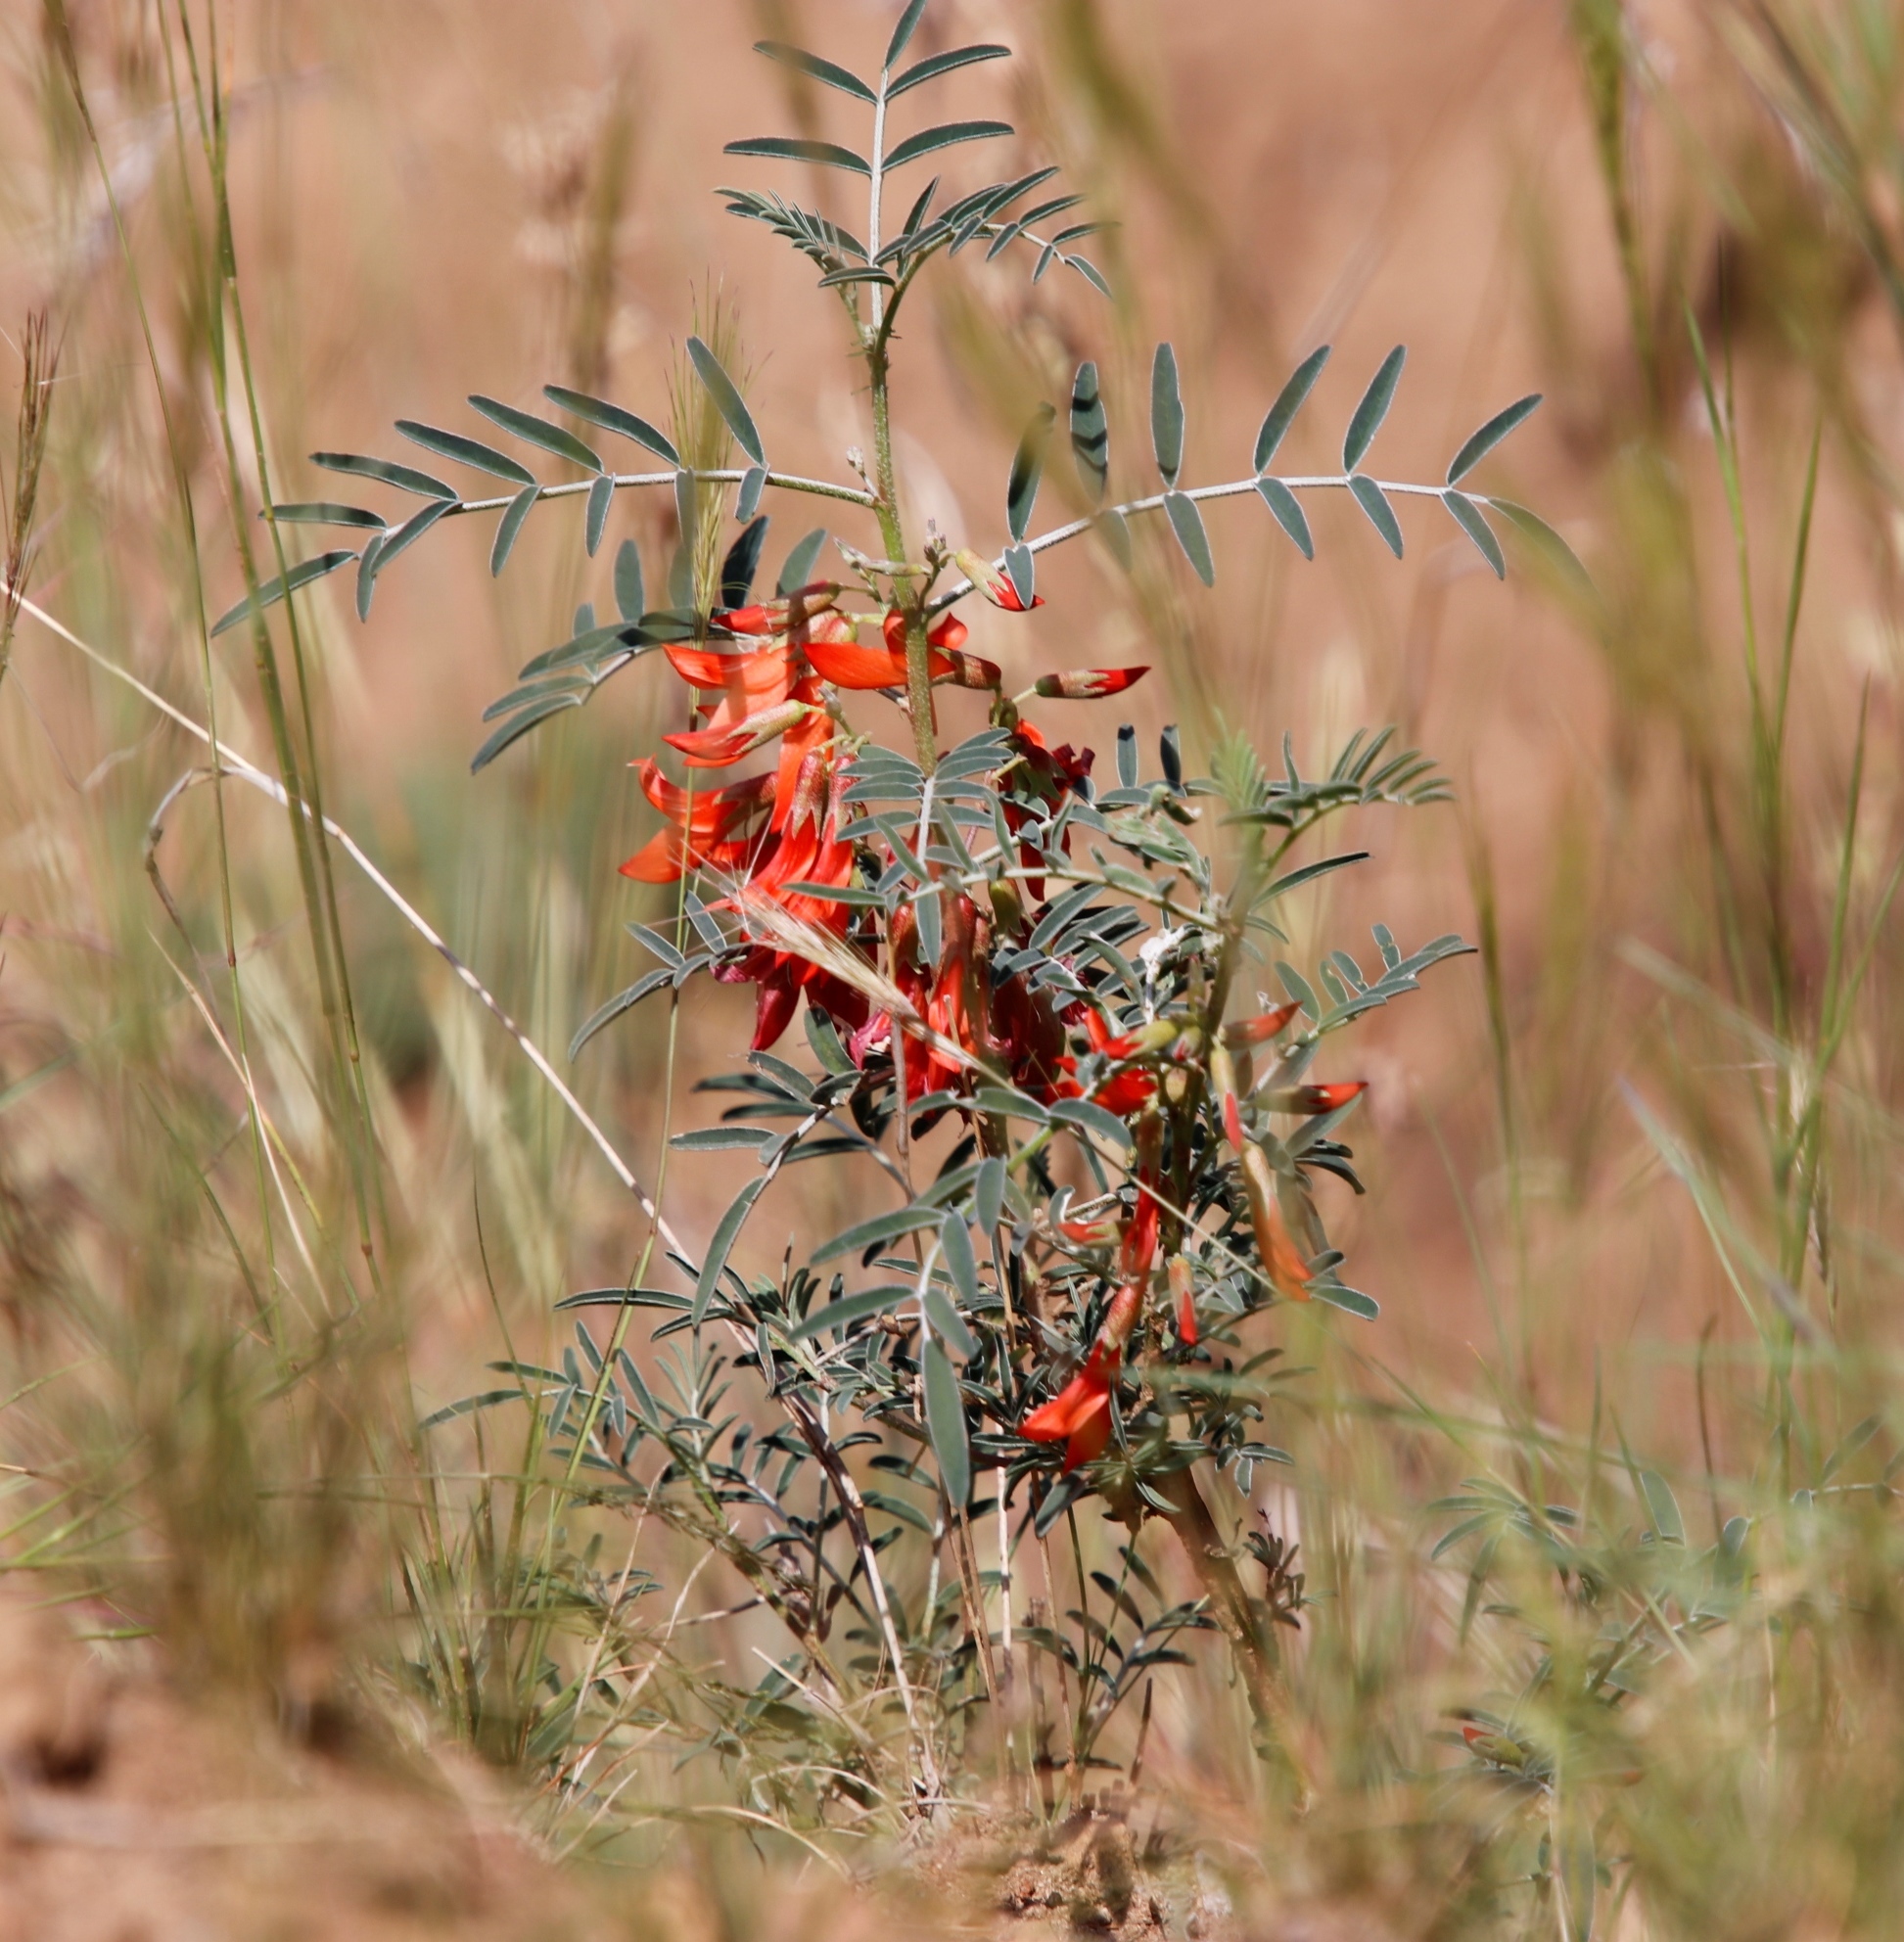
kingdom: Plantae
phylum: Tracheophyta
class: Magnoliopsida
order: Fabales
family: Fabaceae
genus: Lessertia
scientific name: Lessertia frutescens
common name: Balloon-pea
